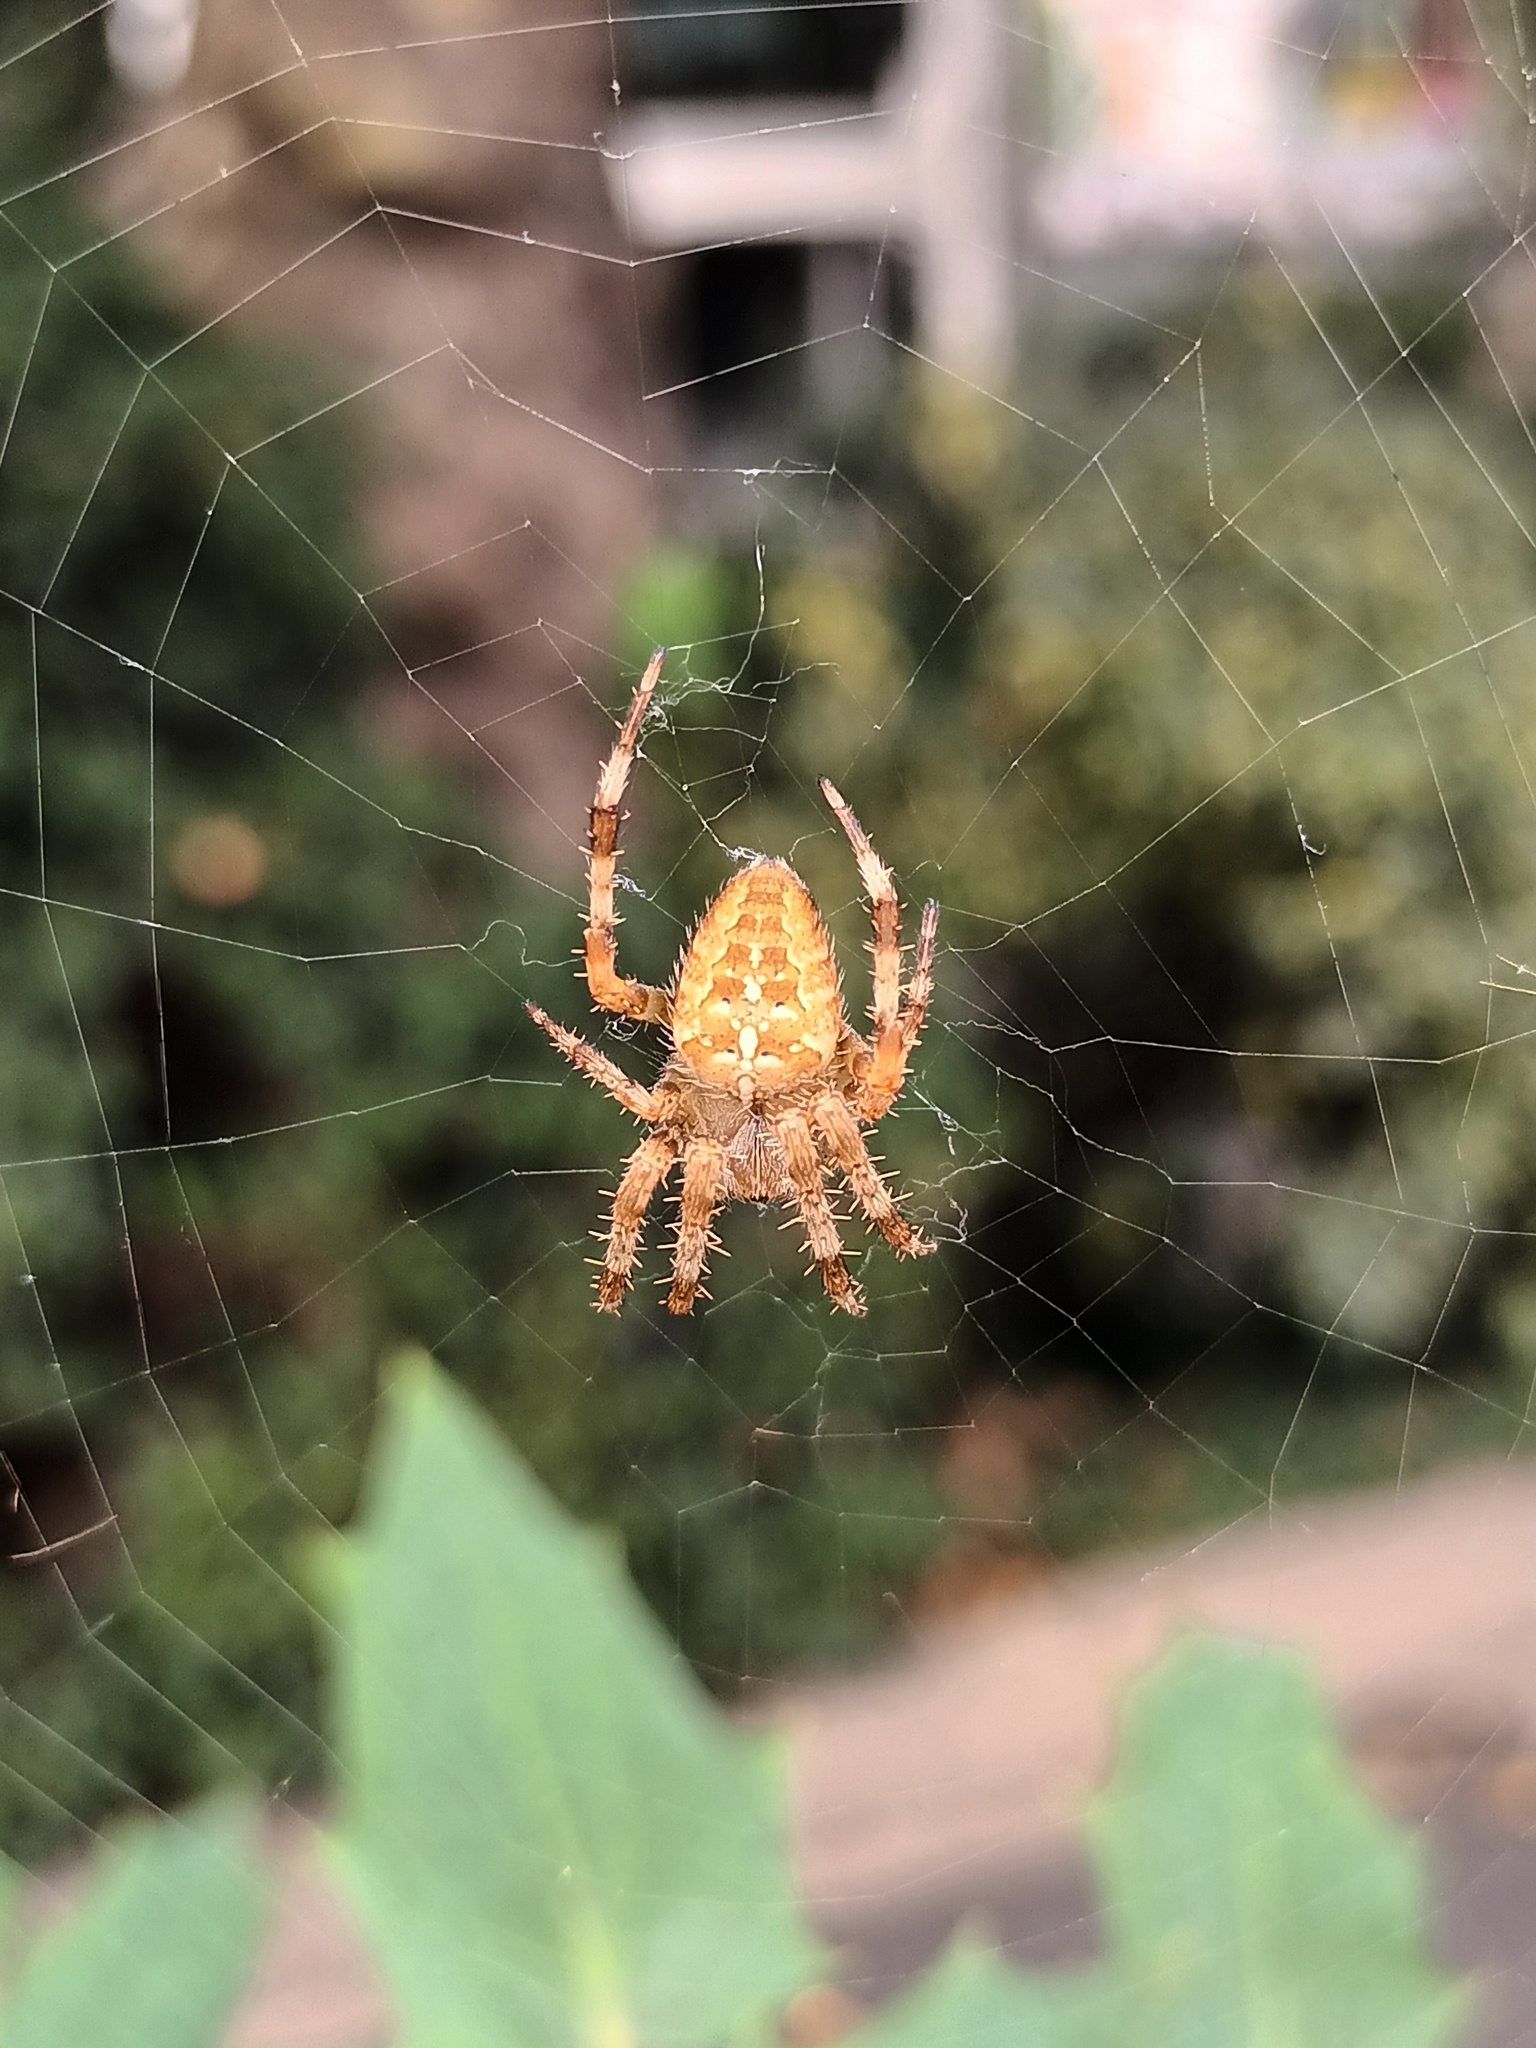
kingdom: Animalia
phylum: Arthropoda
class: Arachnida
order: Araneae
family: Araneidae
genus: Araneus
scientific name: Araneus diadematus
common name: Cross orbweaver
